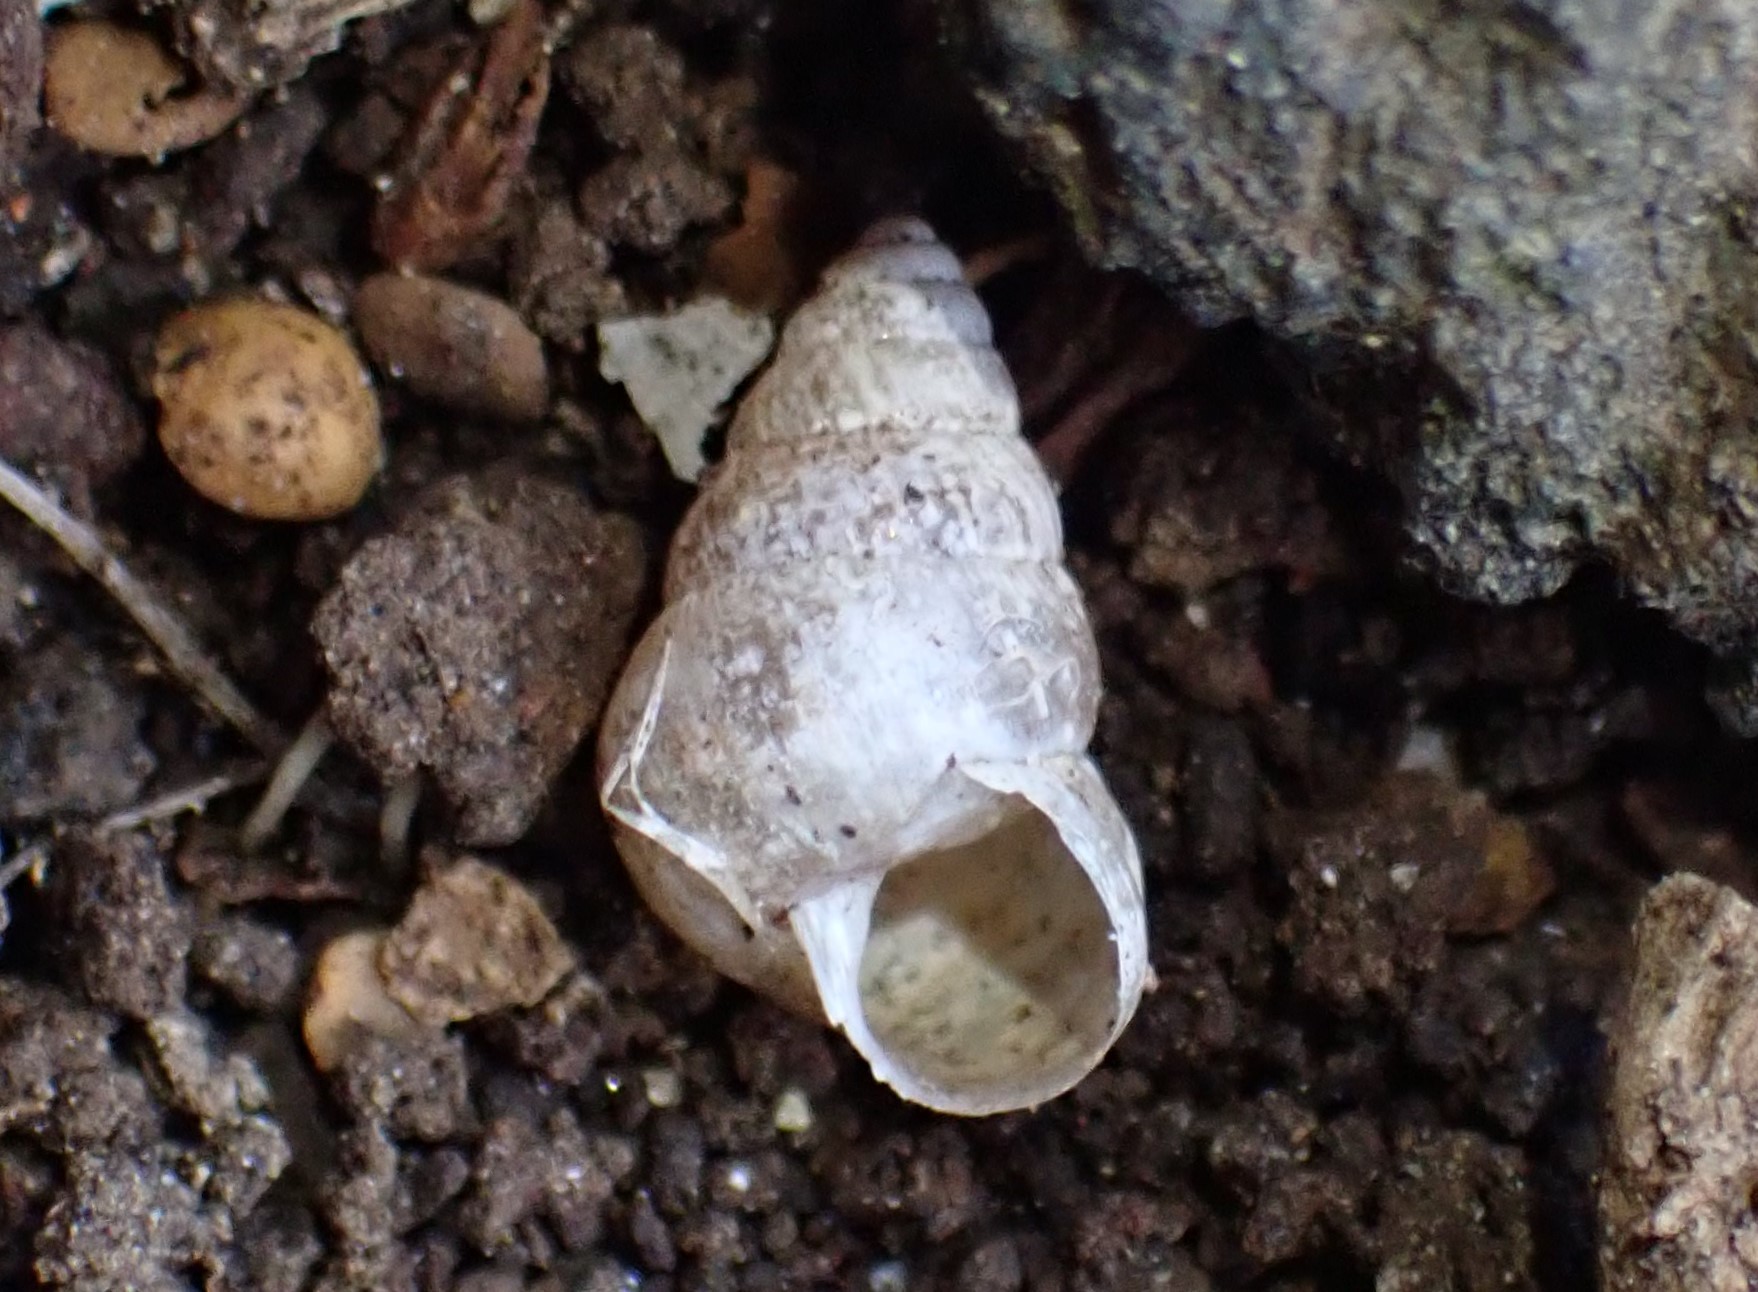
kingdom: Animalia
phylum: Mollusca
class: Gastropoda
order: Stylommatophora
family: Geomitridae
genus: Cochlicella
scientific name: Cochlicella barbara
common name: Potbellied helicellid
